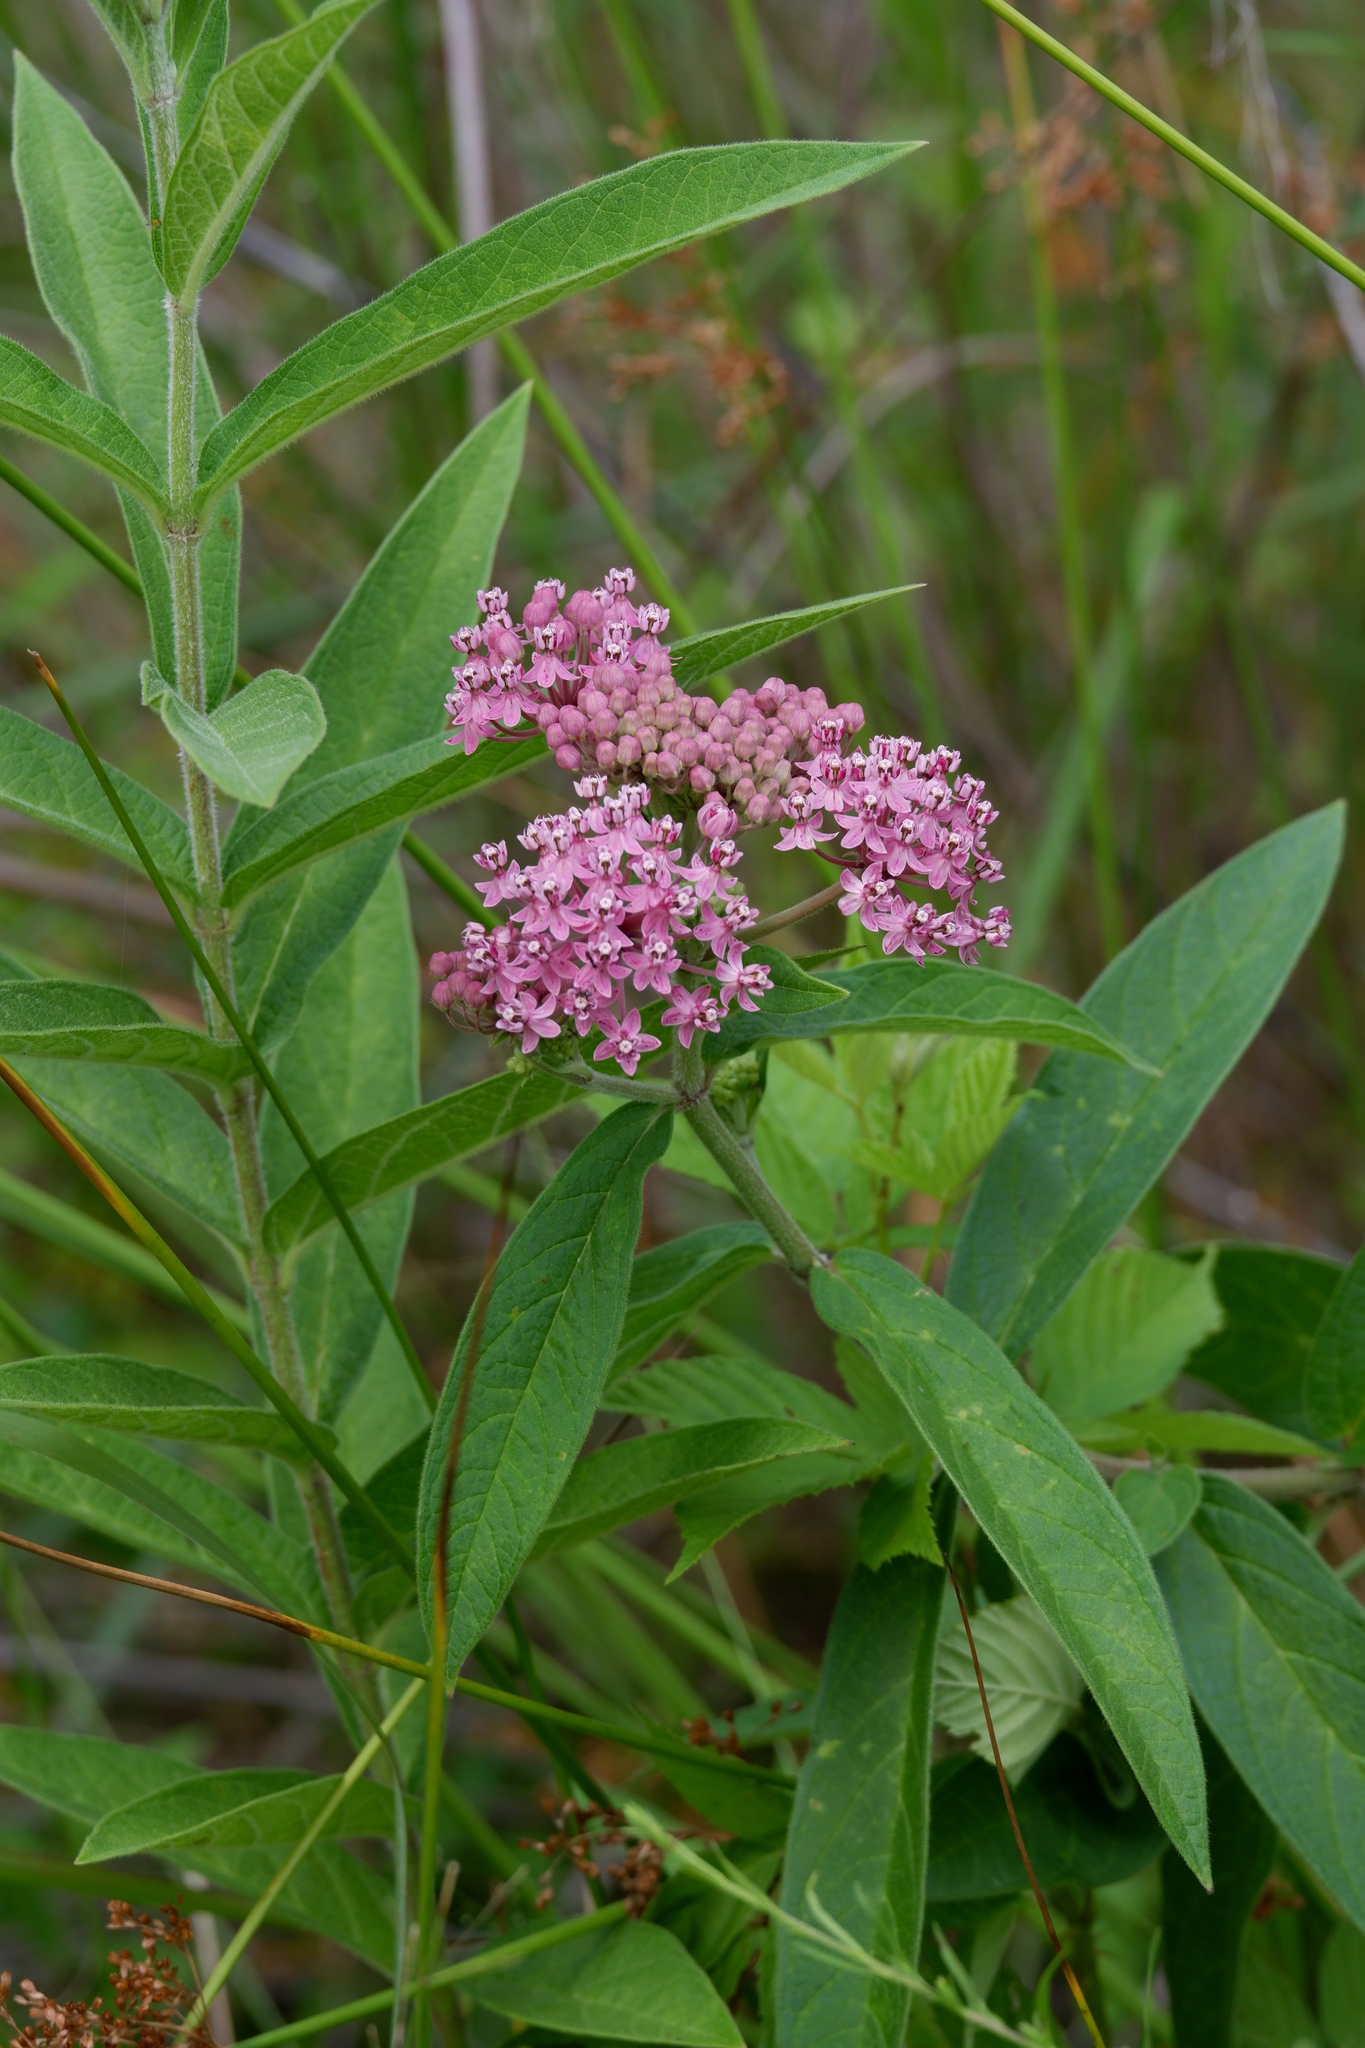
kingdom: Plantae
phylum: Tracheophyta
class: Magnoliopsida
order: Gentianales
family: Apocynaceae
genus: Asclepias
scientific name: Asclepias incarnata
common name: Swamp milkweed
